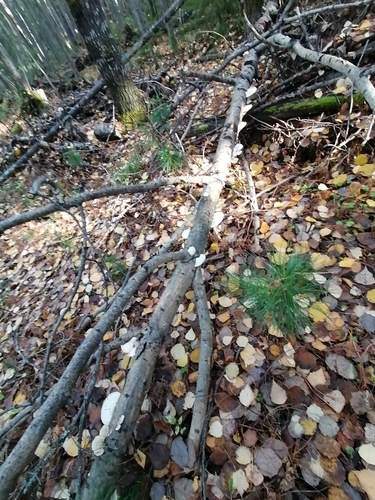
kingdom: Fungi
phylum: Basidiomycota
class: Agaricomycetes
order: Polyporales
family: Polyporaceae
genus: Trametes
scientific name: Trametes gibbosa
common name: Lumpy bracket
